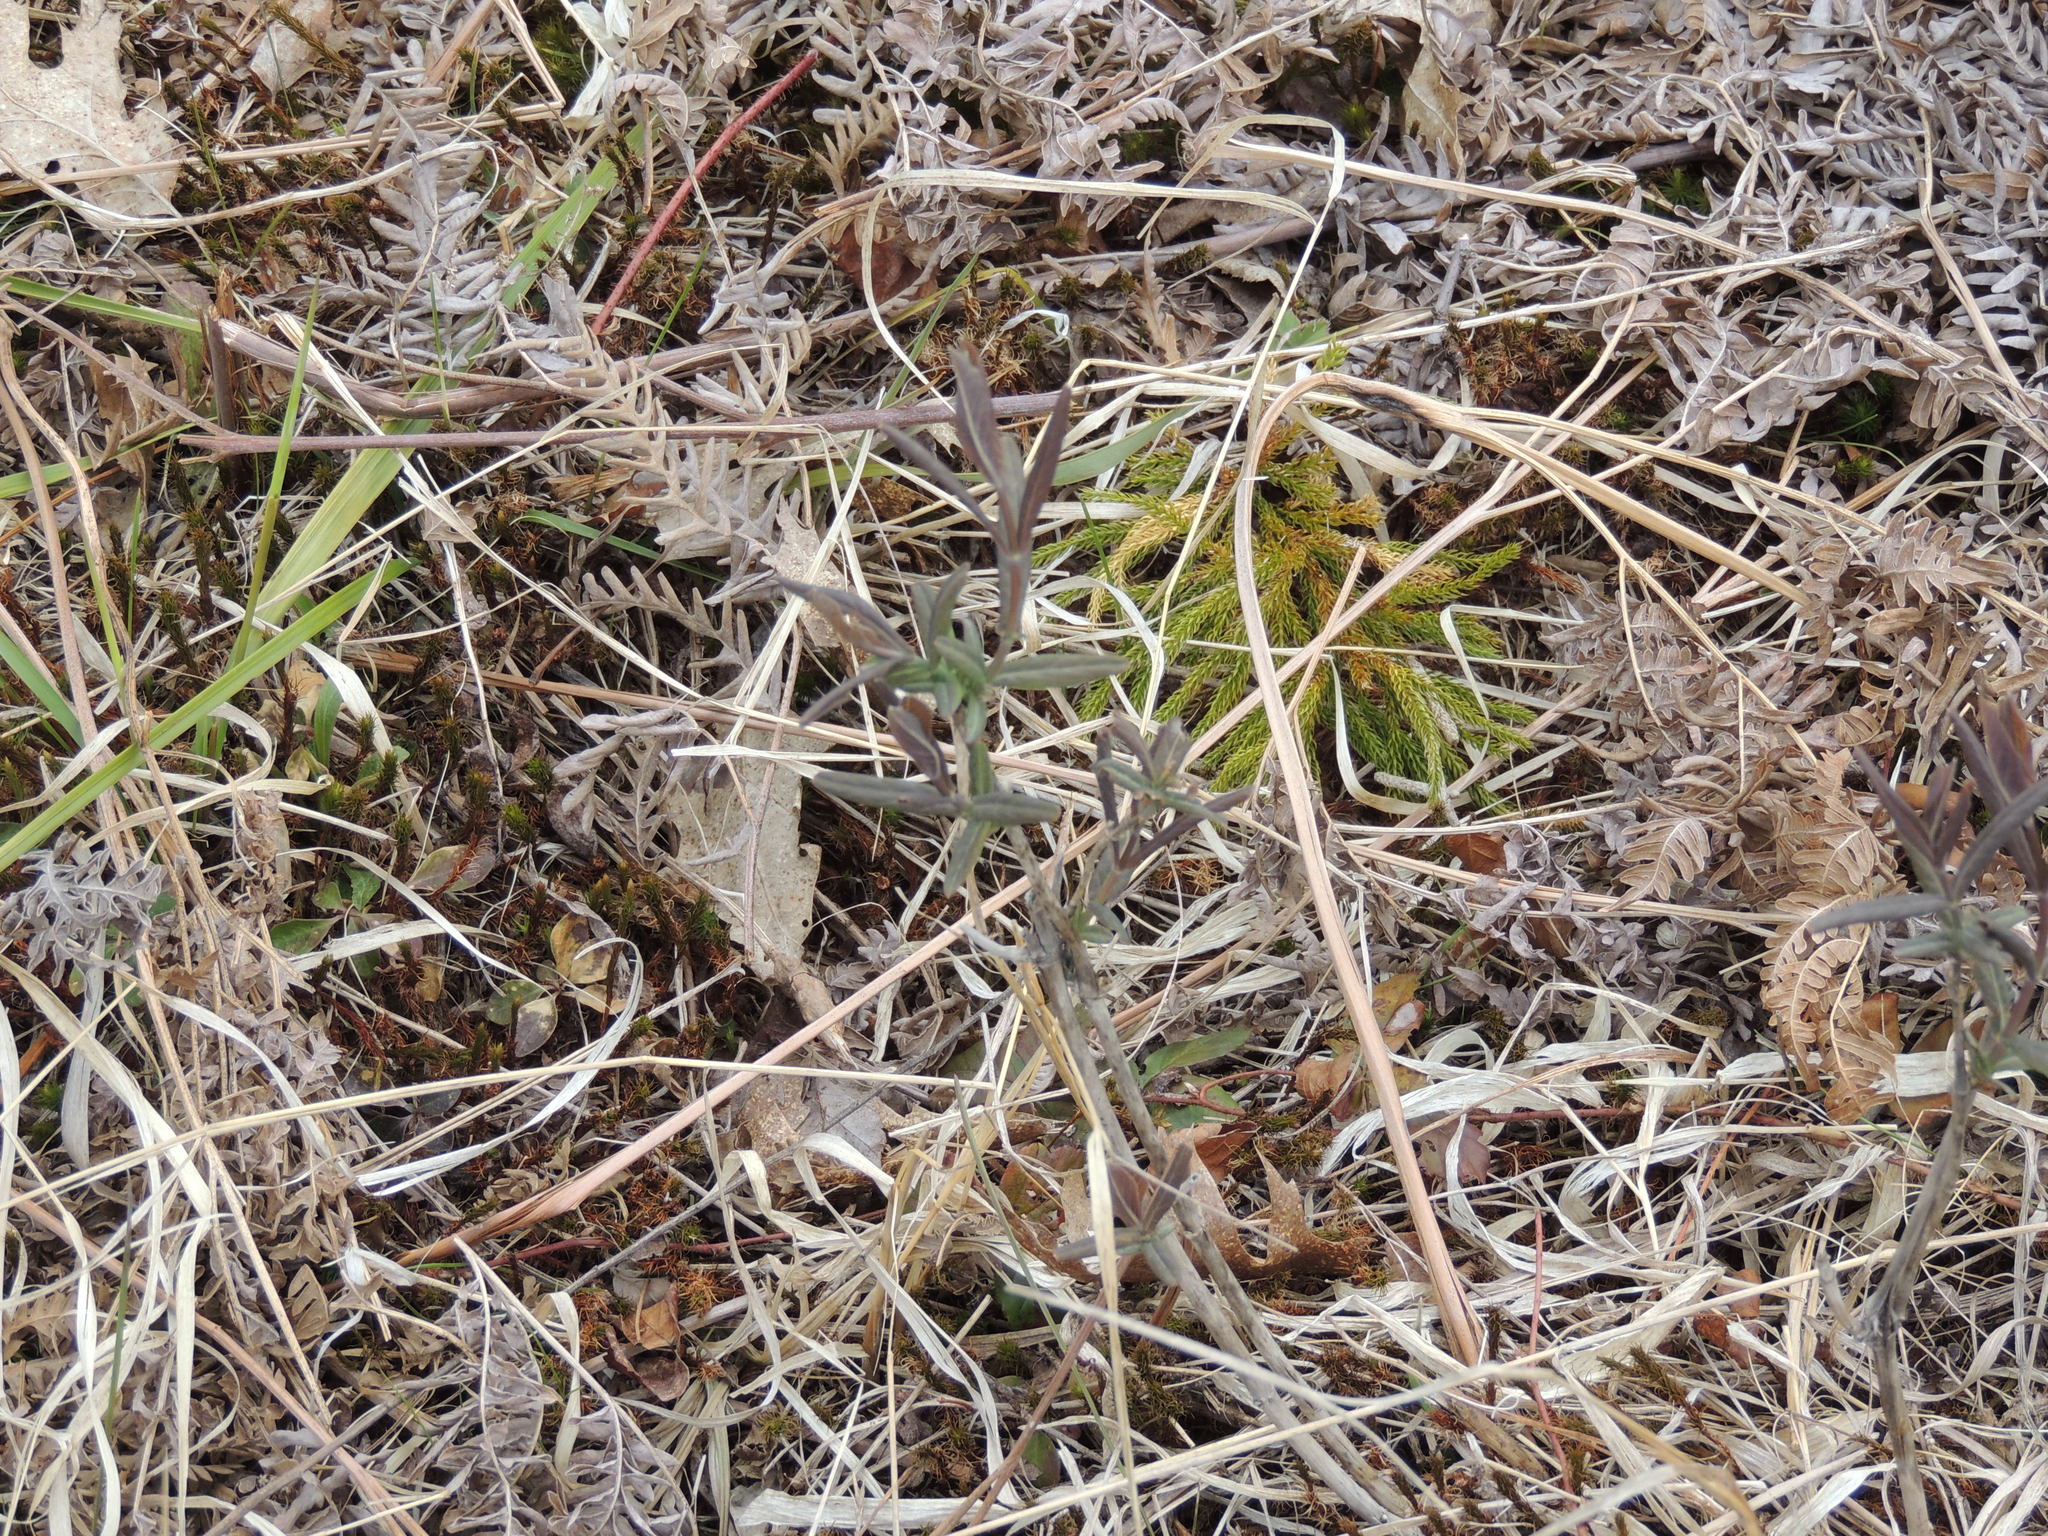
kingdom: Plantae
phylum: Tracheophyta
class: Magnoliopsida
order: Dipsacales
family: Caprifoliaceae
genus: Lonicera
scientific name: Lonicera dioica
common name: Limber honeysuckle
